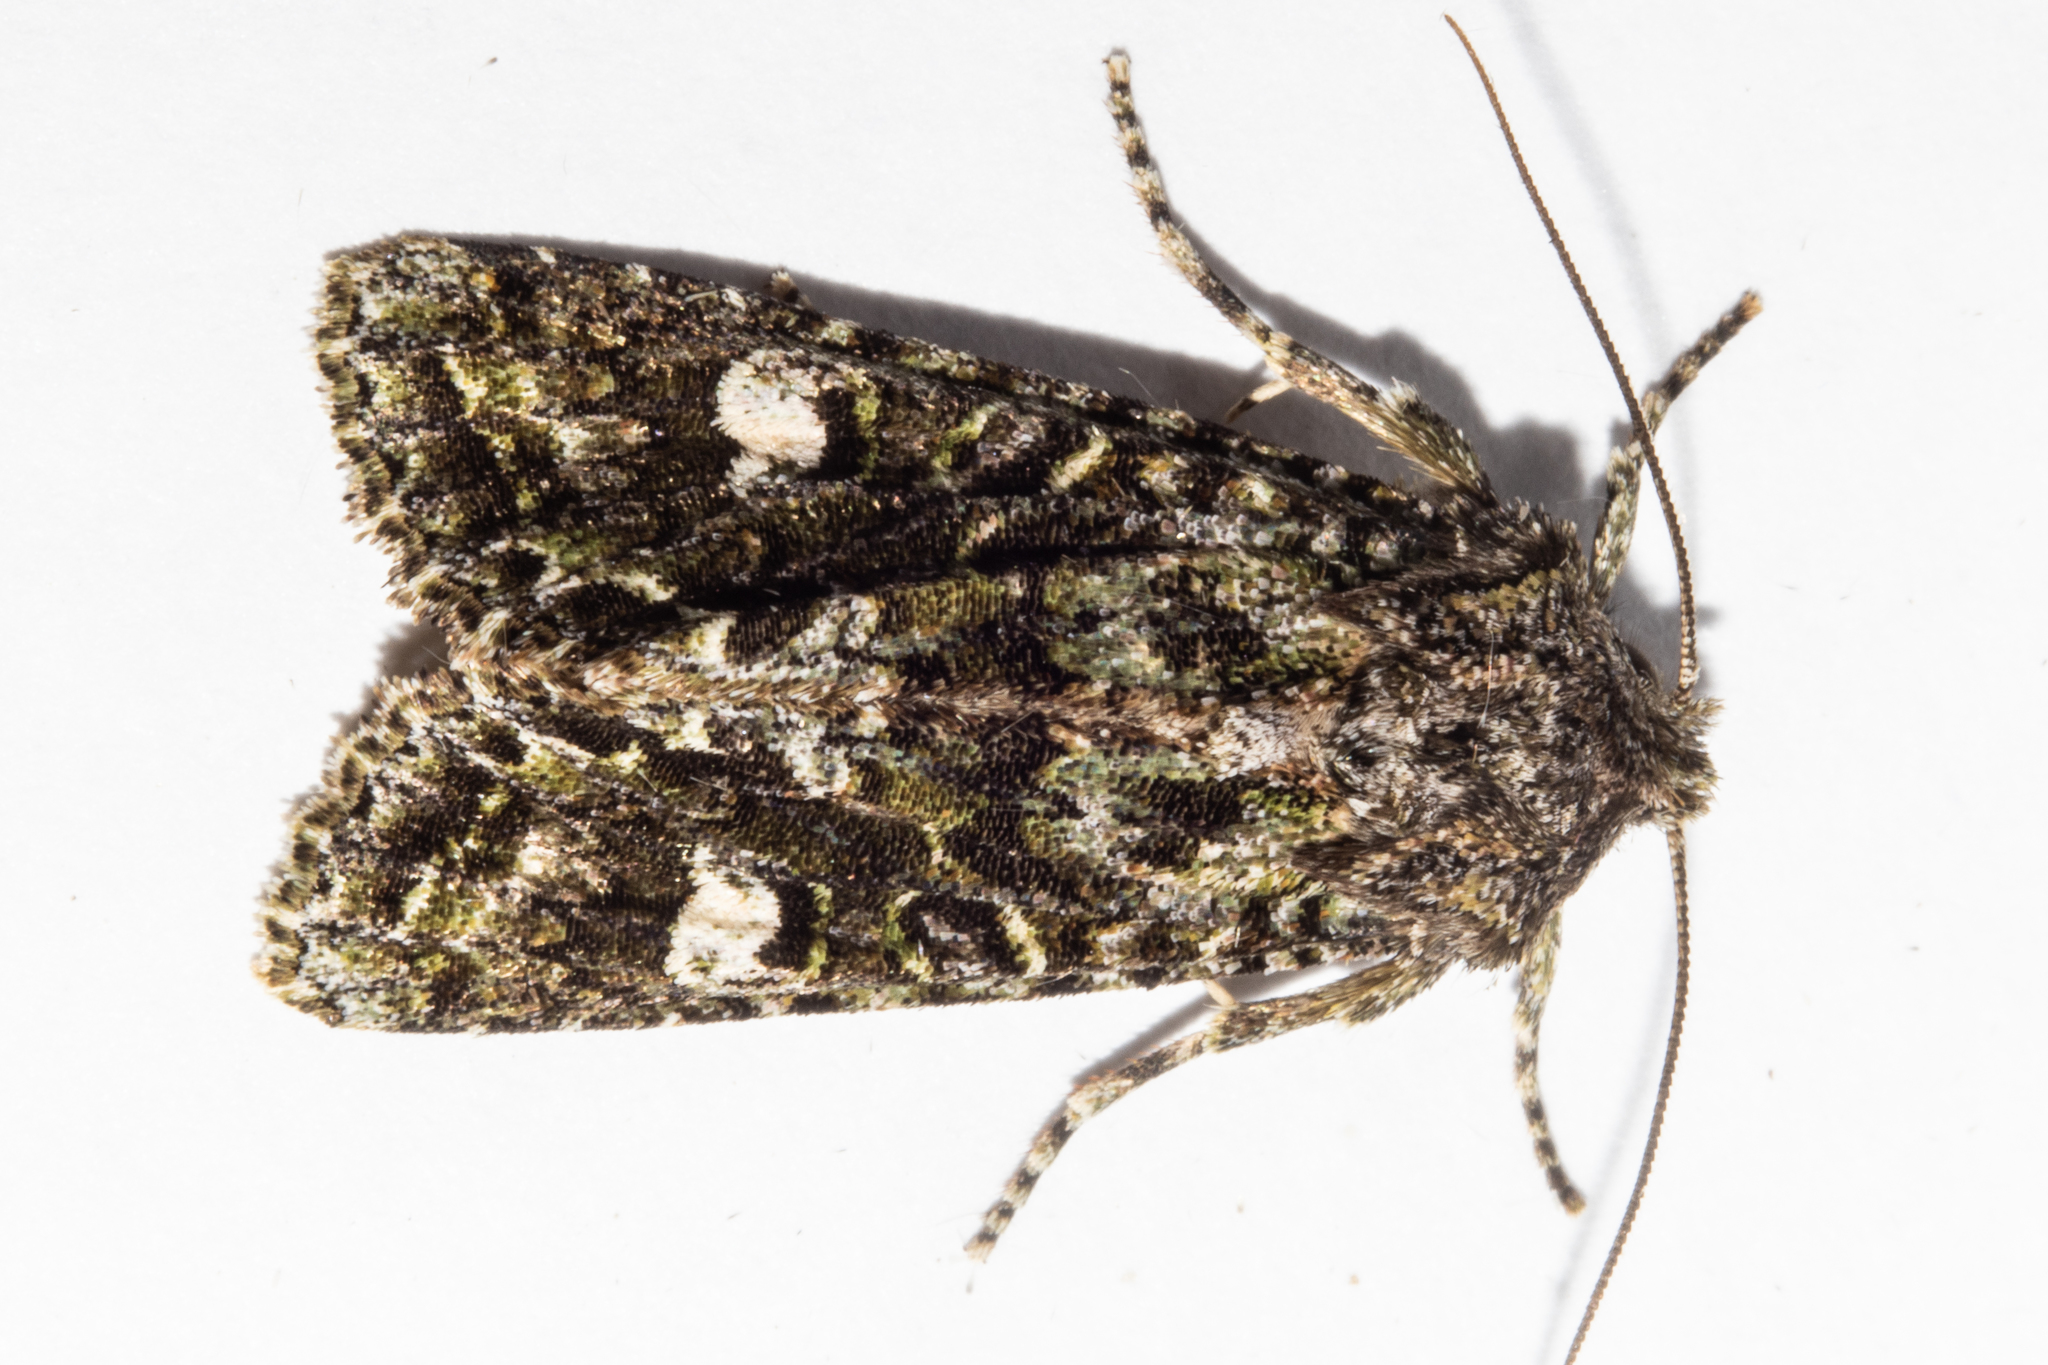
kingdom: Animalia
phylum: Arthropoda
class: Insecta
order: Lepidoptera
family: Noctuidae
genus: Ichneutica
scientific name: Ichneutica
